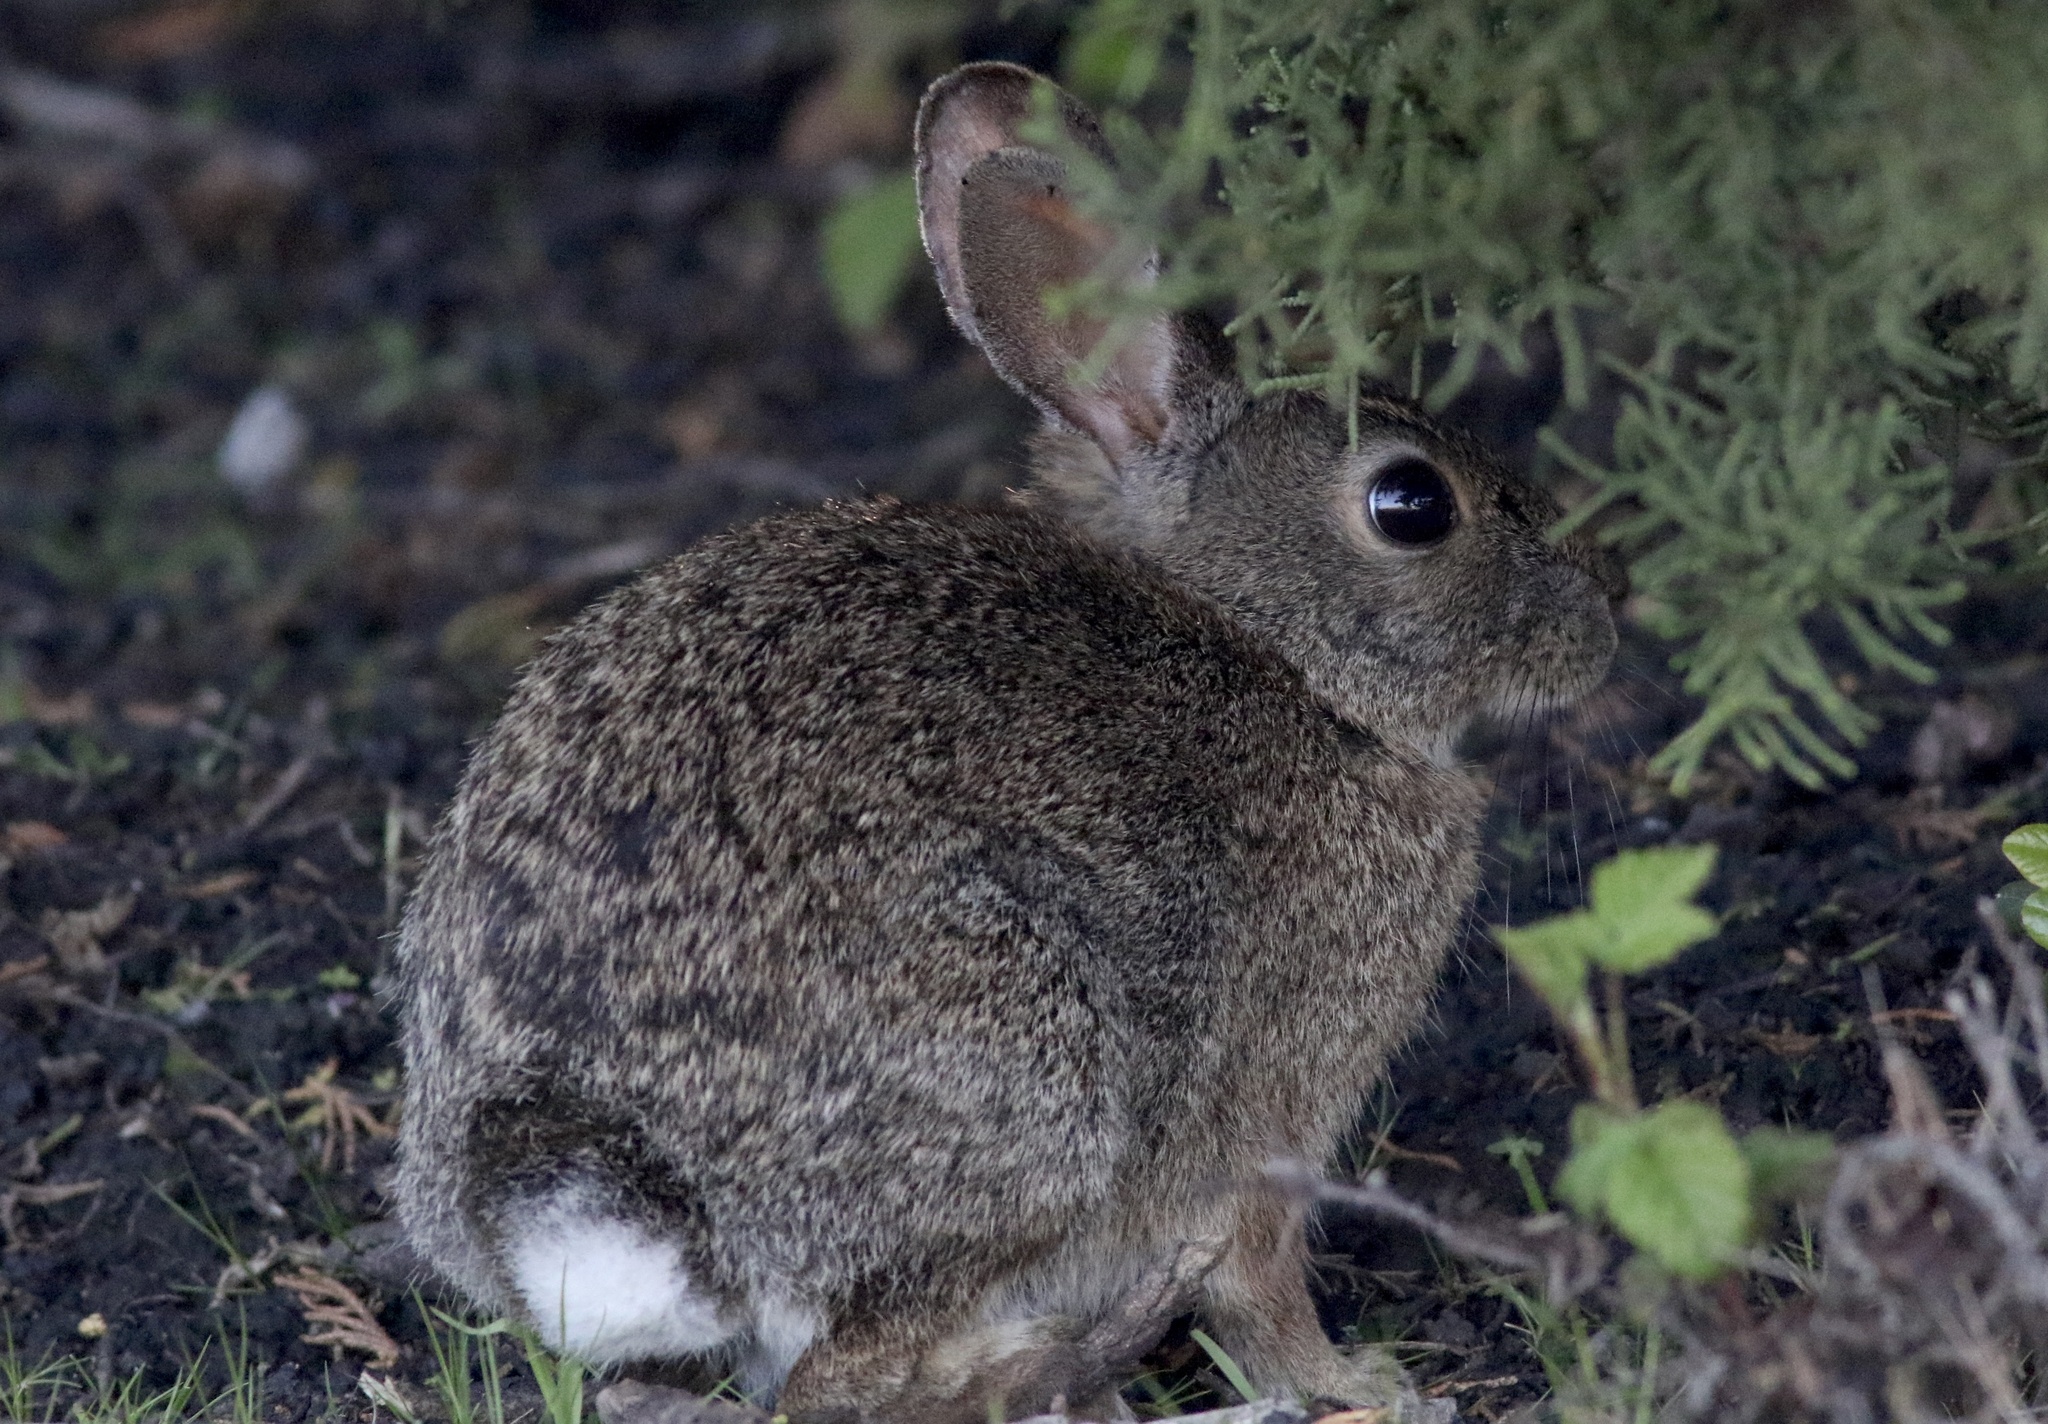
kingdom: Animalia
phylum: Chordata
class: Mammalia
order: Lagomorpha
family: Leporidae
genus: Sylvilagus
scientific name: Sylvilagus bachmani
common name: Brush rabbit
